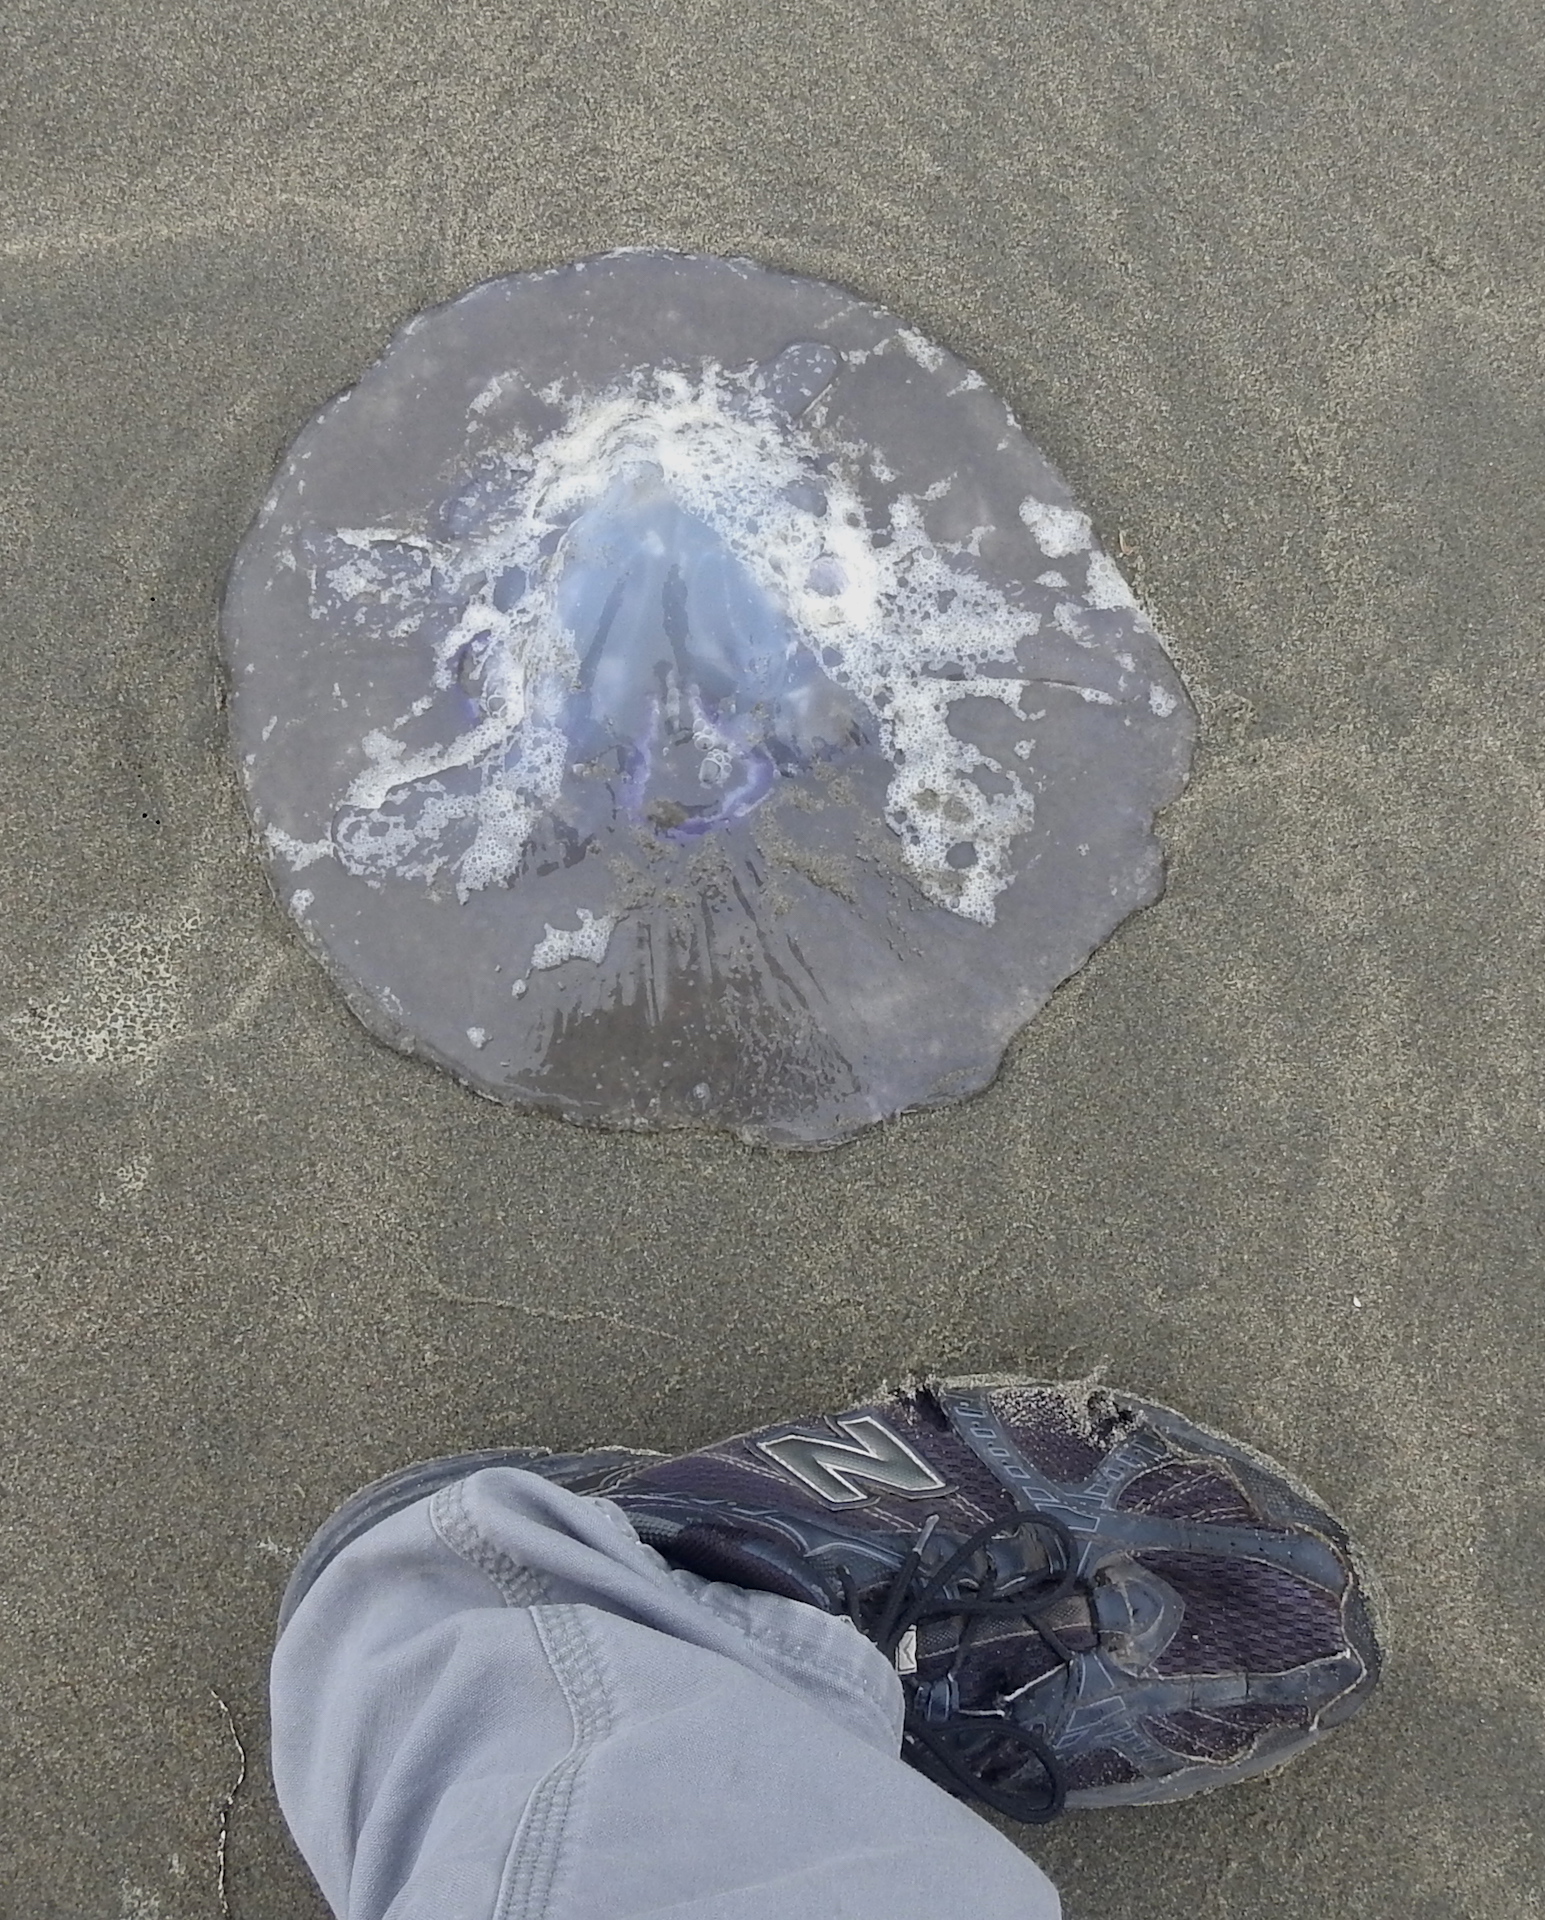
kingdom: Animalia
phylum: Cnidaria
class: Scyphozoa
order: Semaeostomeae
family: Ulmaridae
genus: Aurelia
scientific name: Aurelia labiata
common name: Pacific moon jelly
